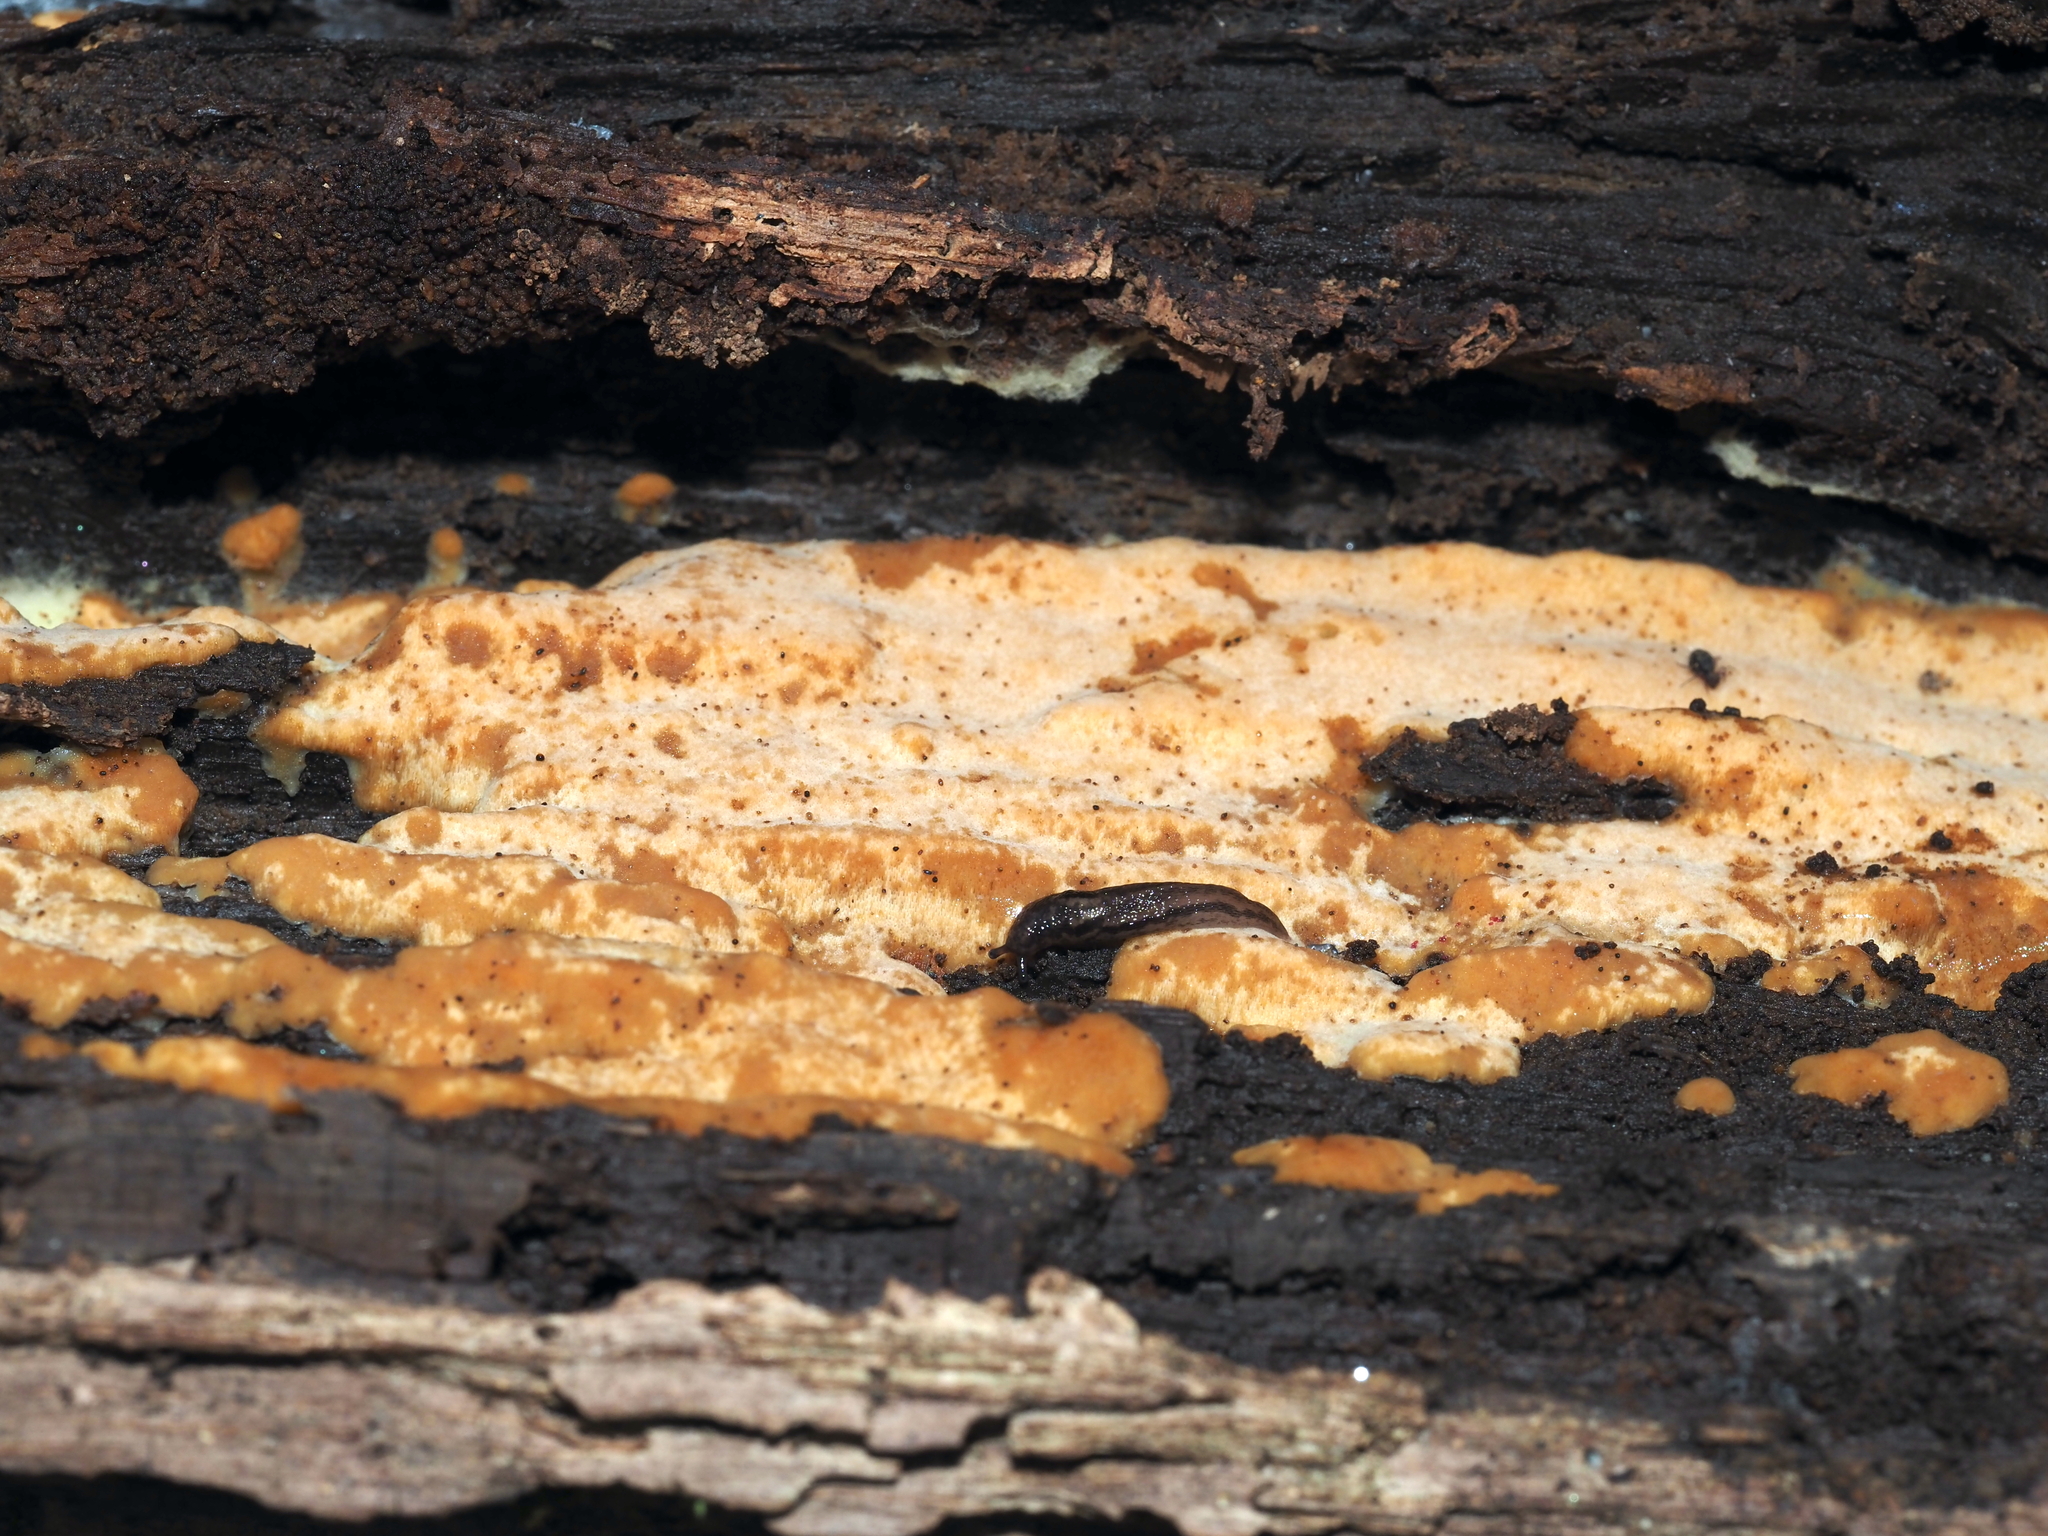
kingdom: Fungi
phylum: Basidiomycota
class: Agaricomycetes
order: Polyporales
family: Meripilaceae
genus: Rigidoporus
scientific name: Rigidoporus crocatus
